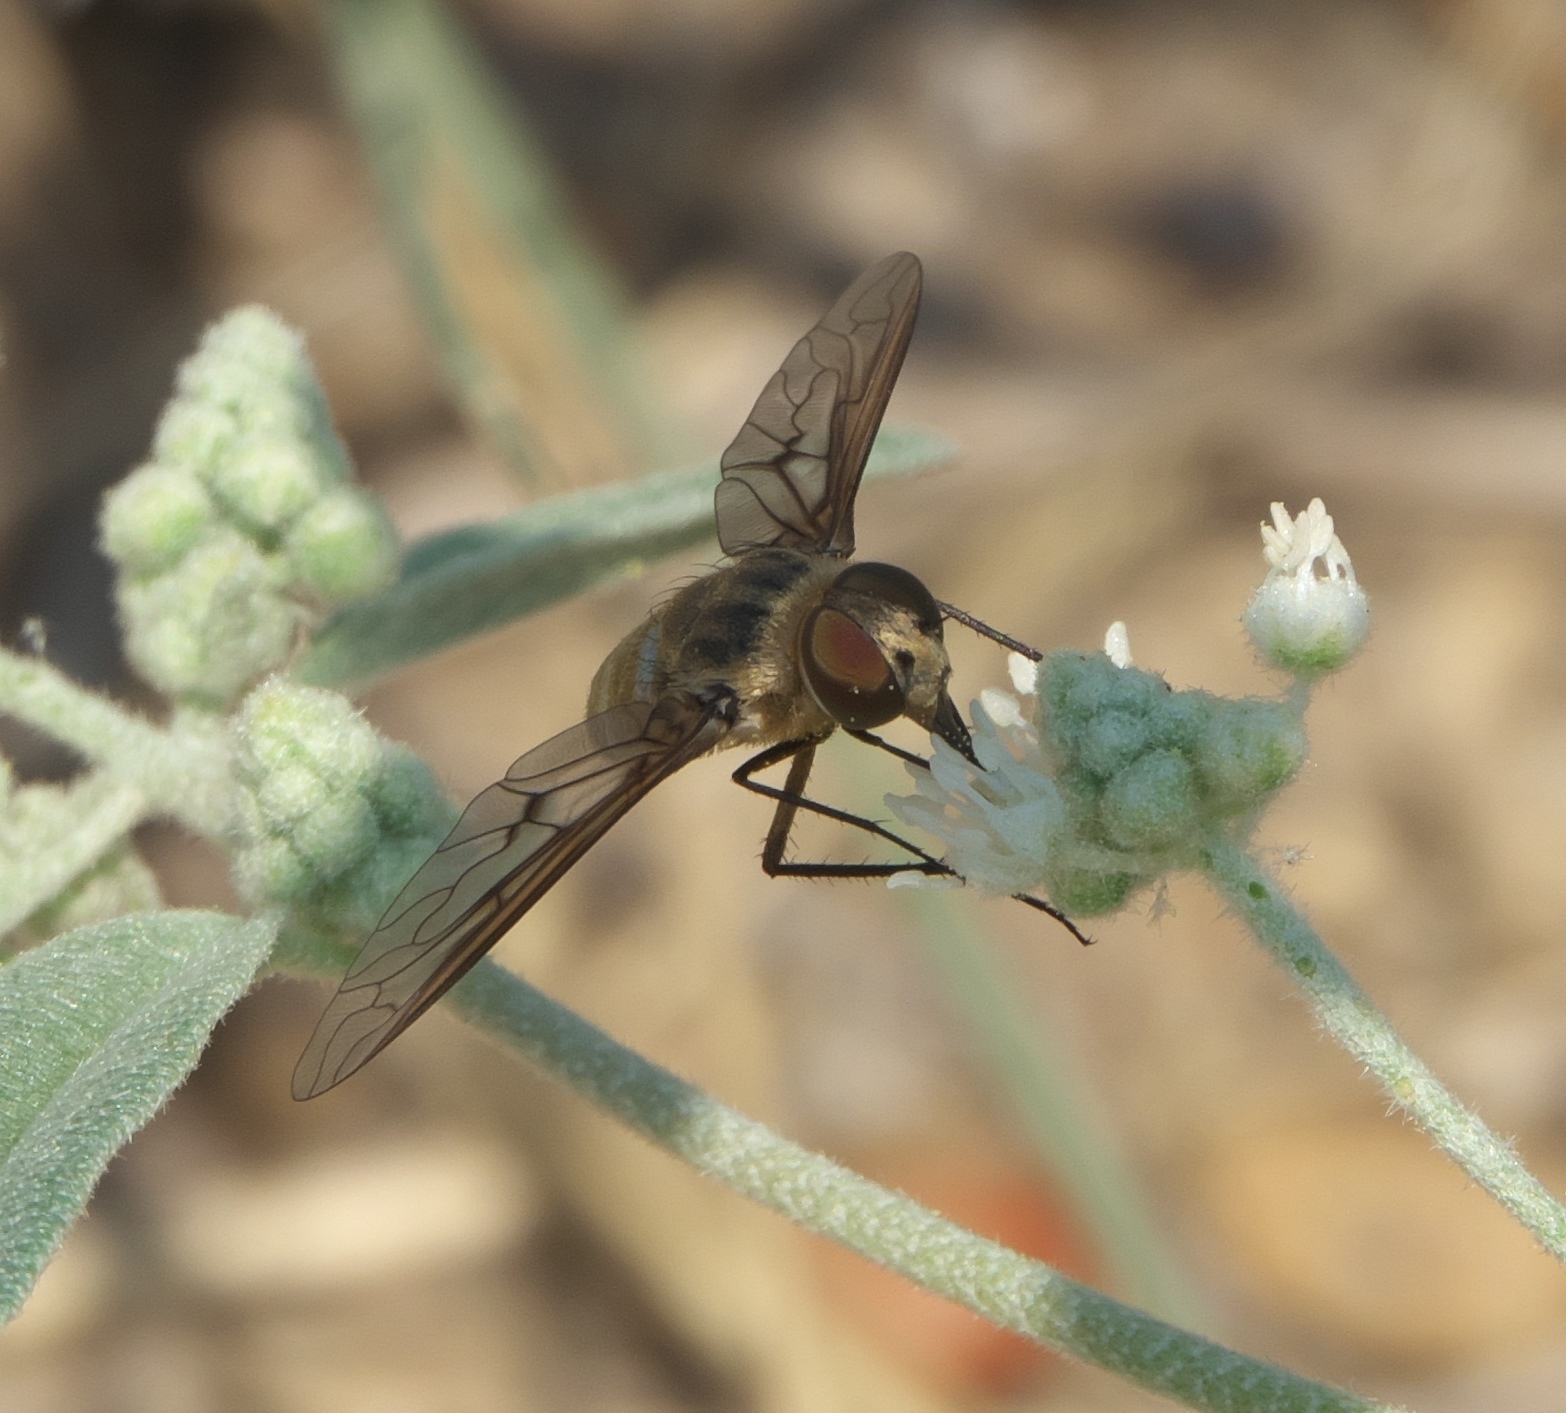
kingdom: Animalia
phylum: Arthropoda
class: Insecta
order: Diptera
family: Bombyliidae
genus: Exoprosopa
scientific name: Exoprosopa fasciata
